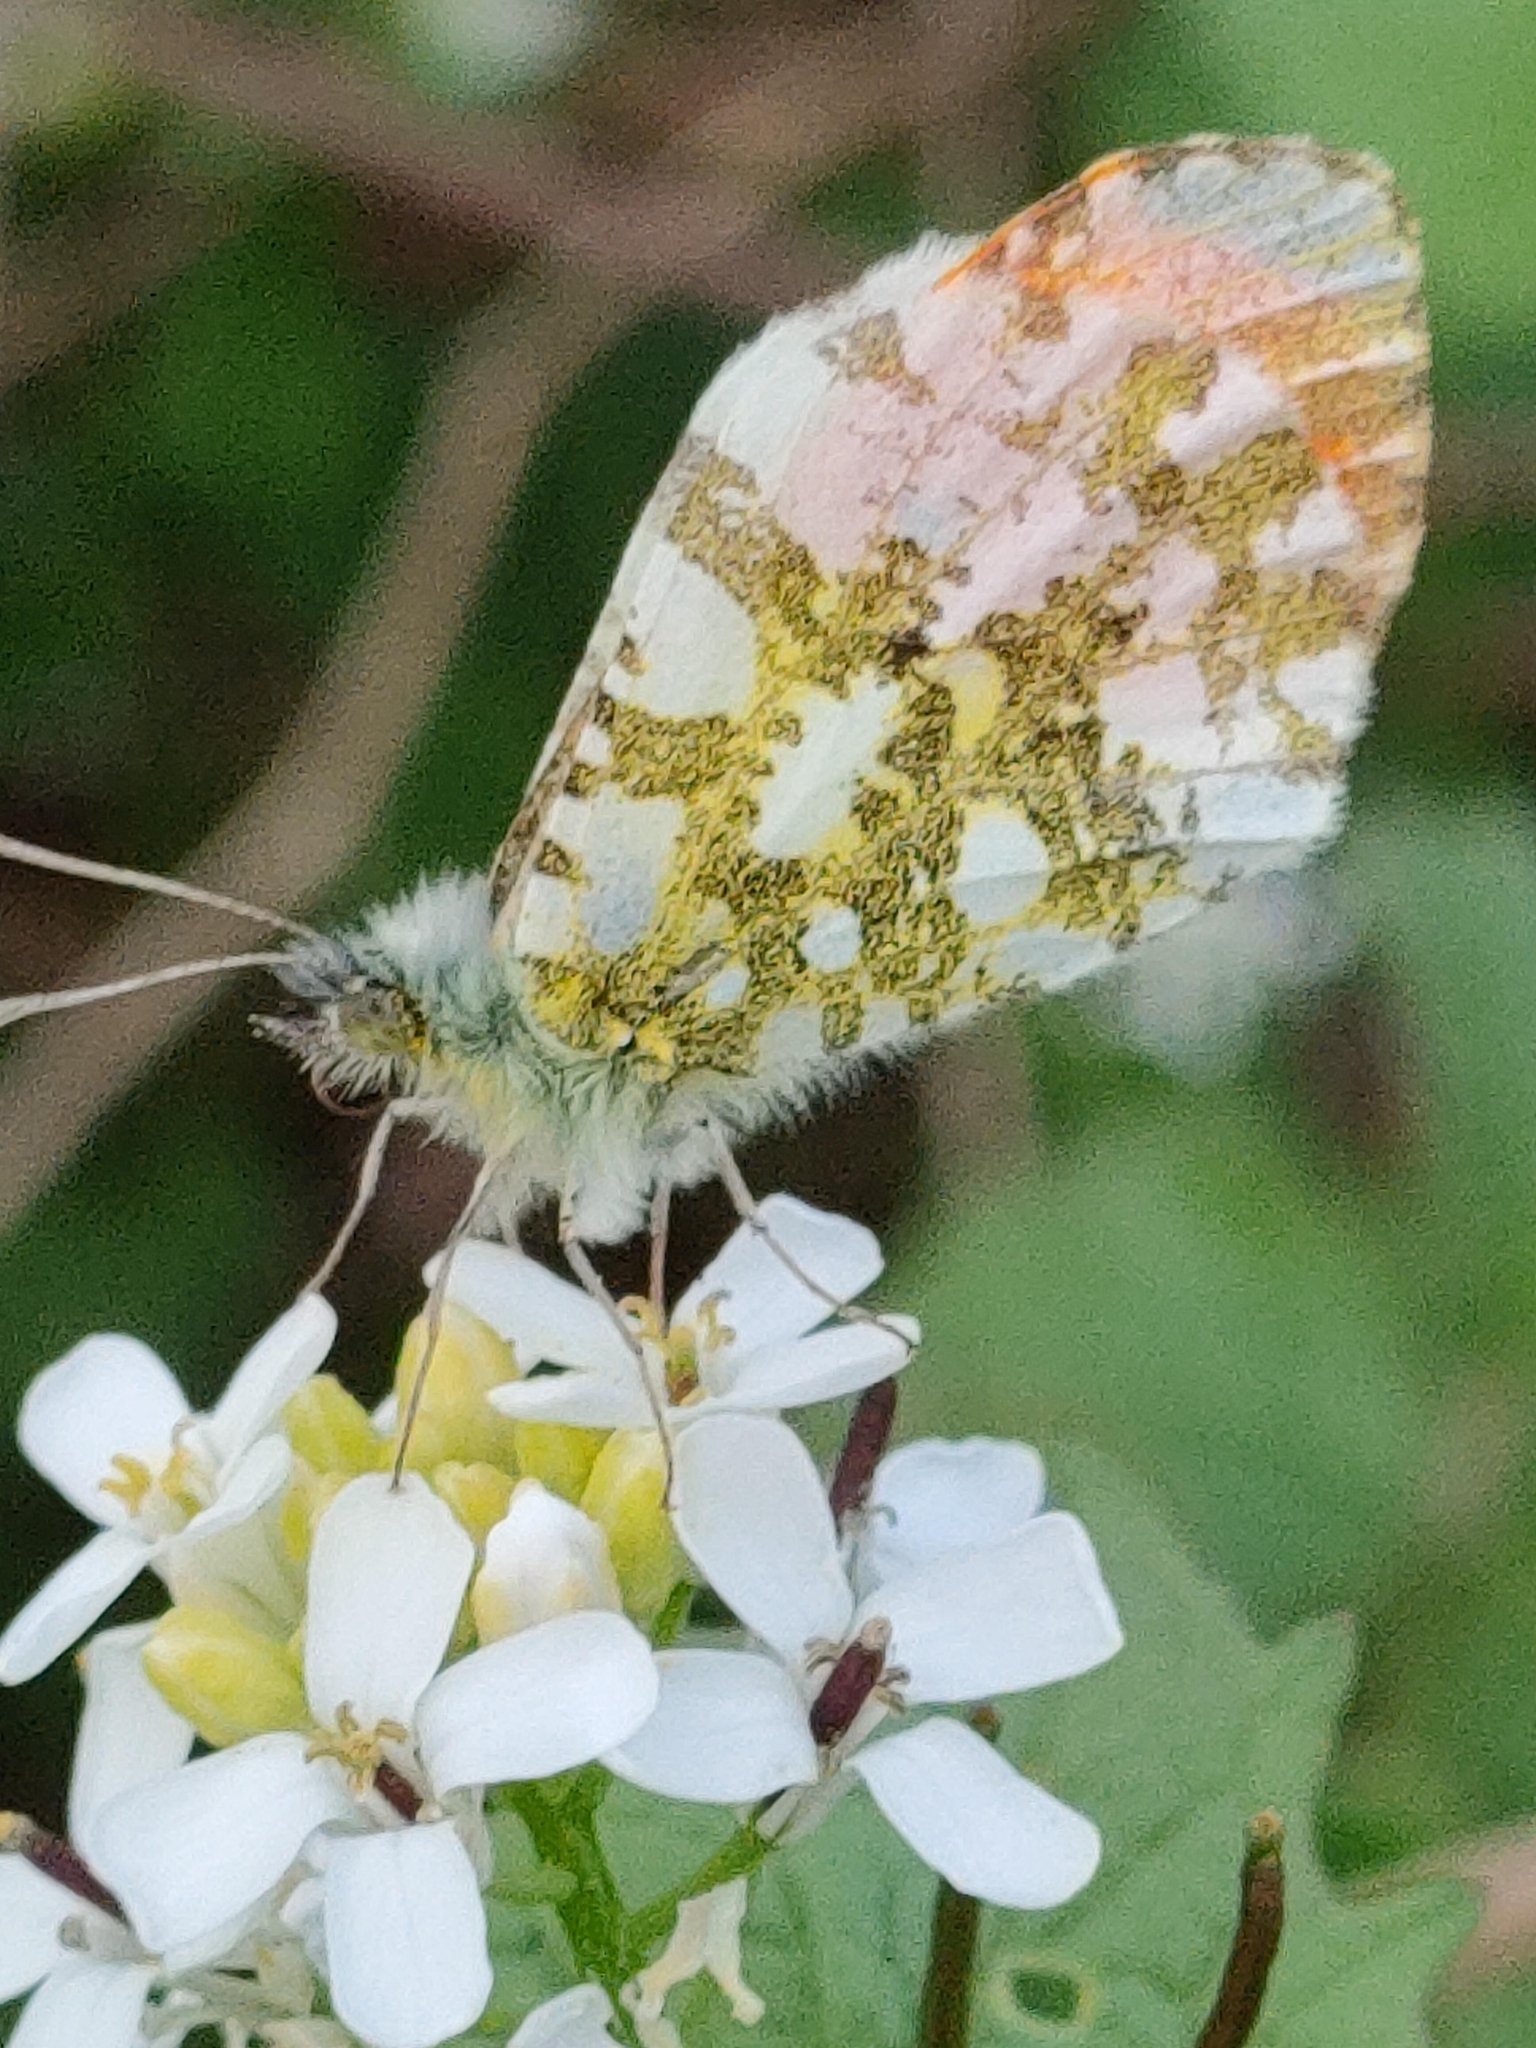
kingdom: Animalia
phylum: Arthropoda
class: Insecta
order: Lepidoptera
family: Pieridae
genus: Anthocharis
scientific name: Anthocharis cardamines
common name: Orange-tip
